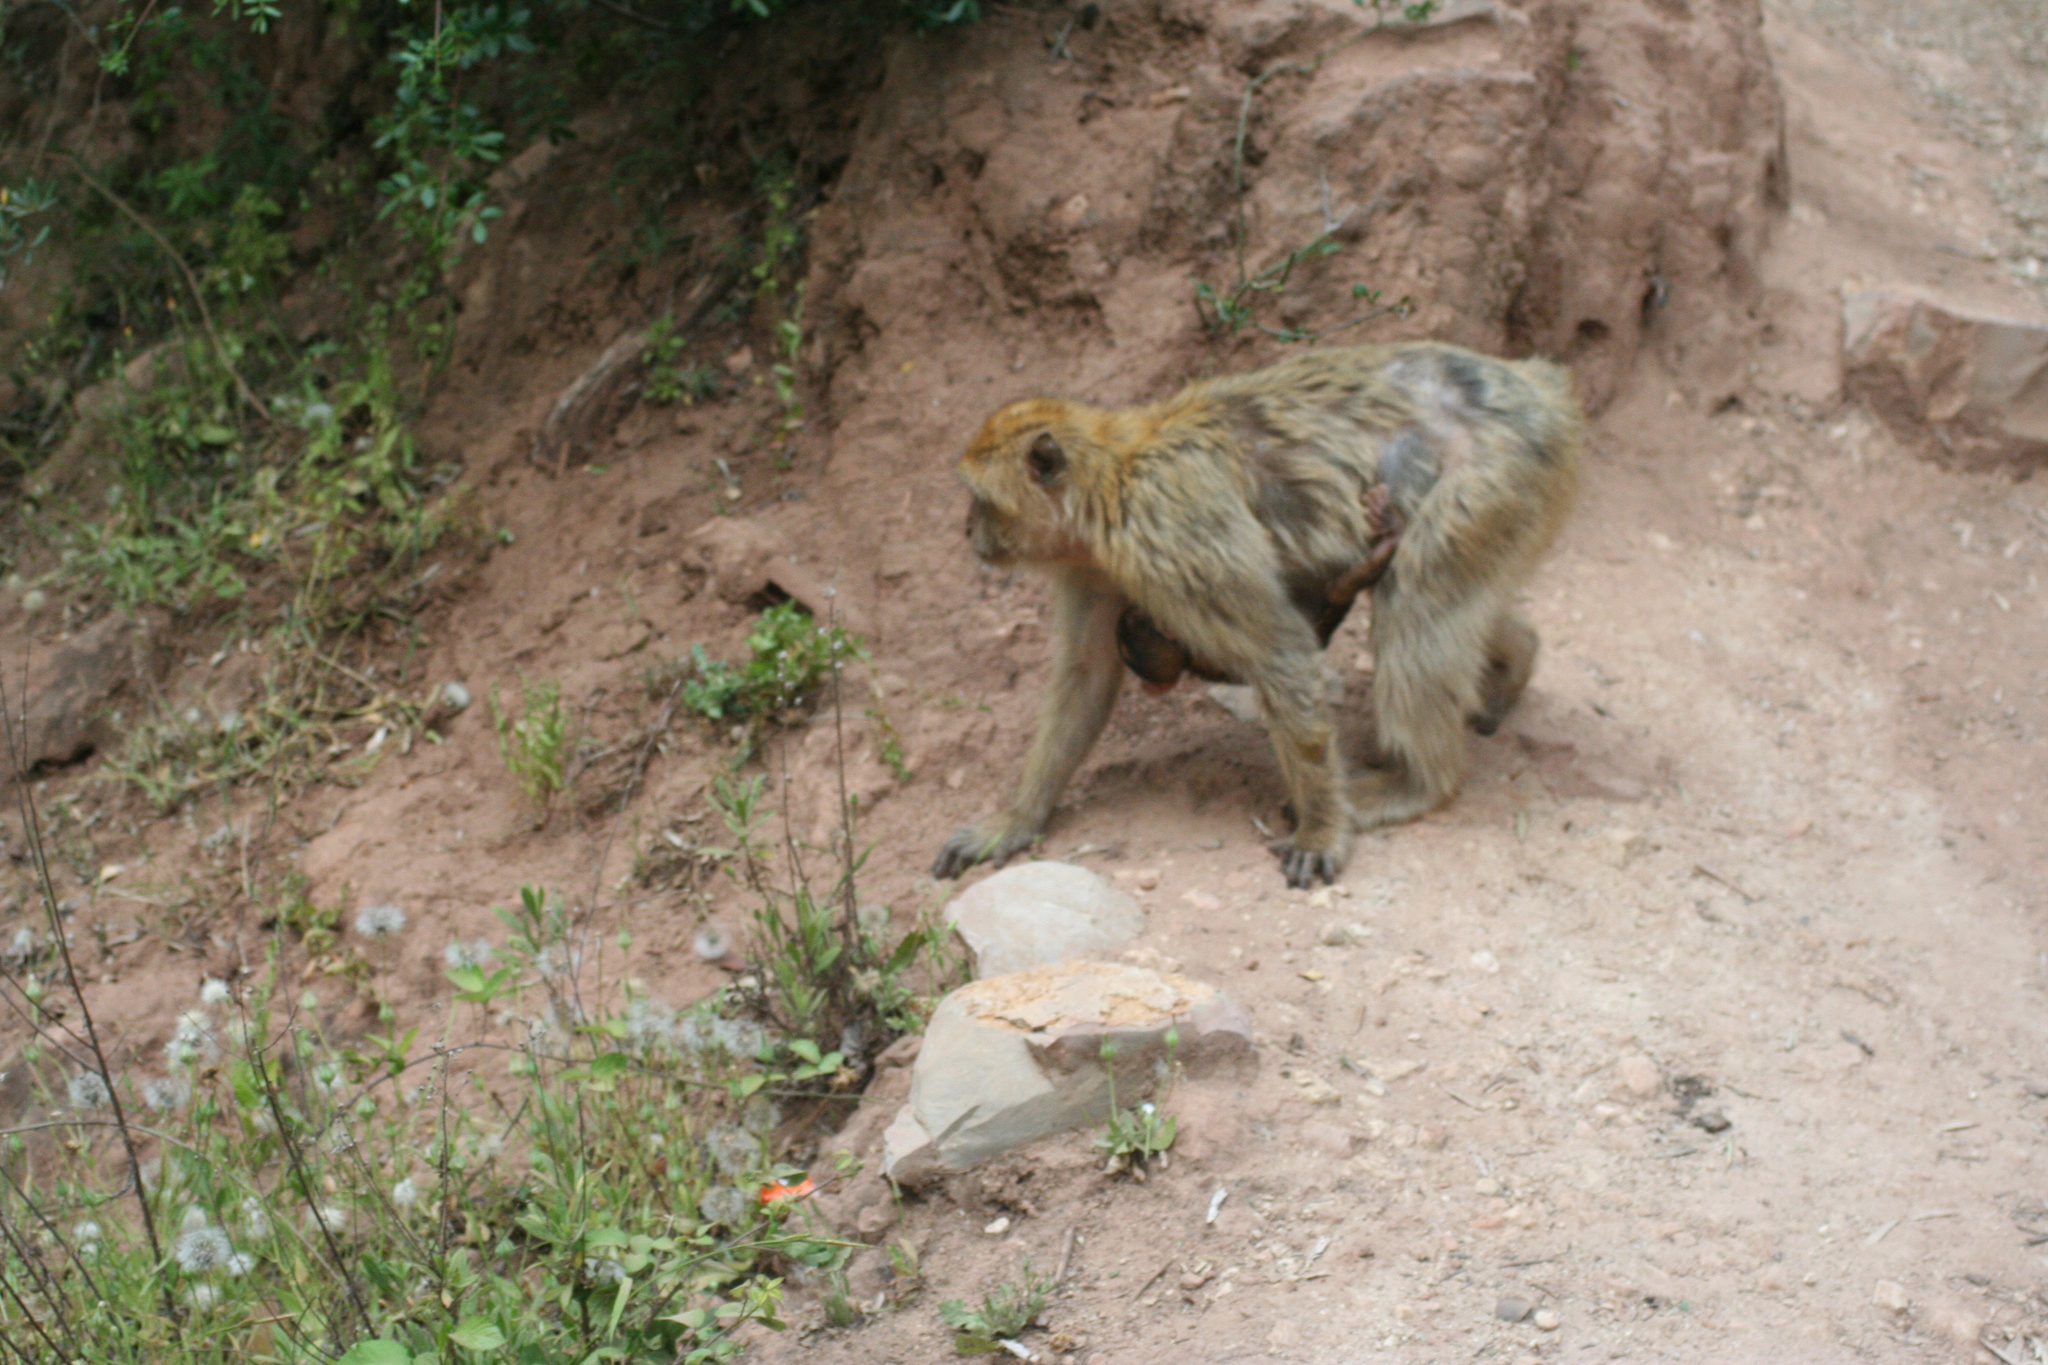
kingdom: Animalia
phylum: Chordata
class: Mammalia
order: Primates
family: Cercopithecidae
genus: Macaca
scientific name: Macaca sylvanus
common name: Barbary macaque
